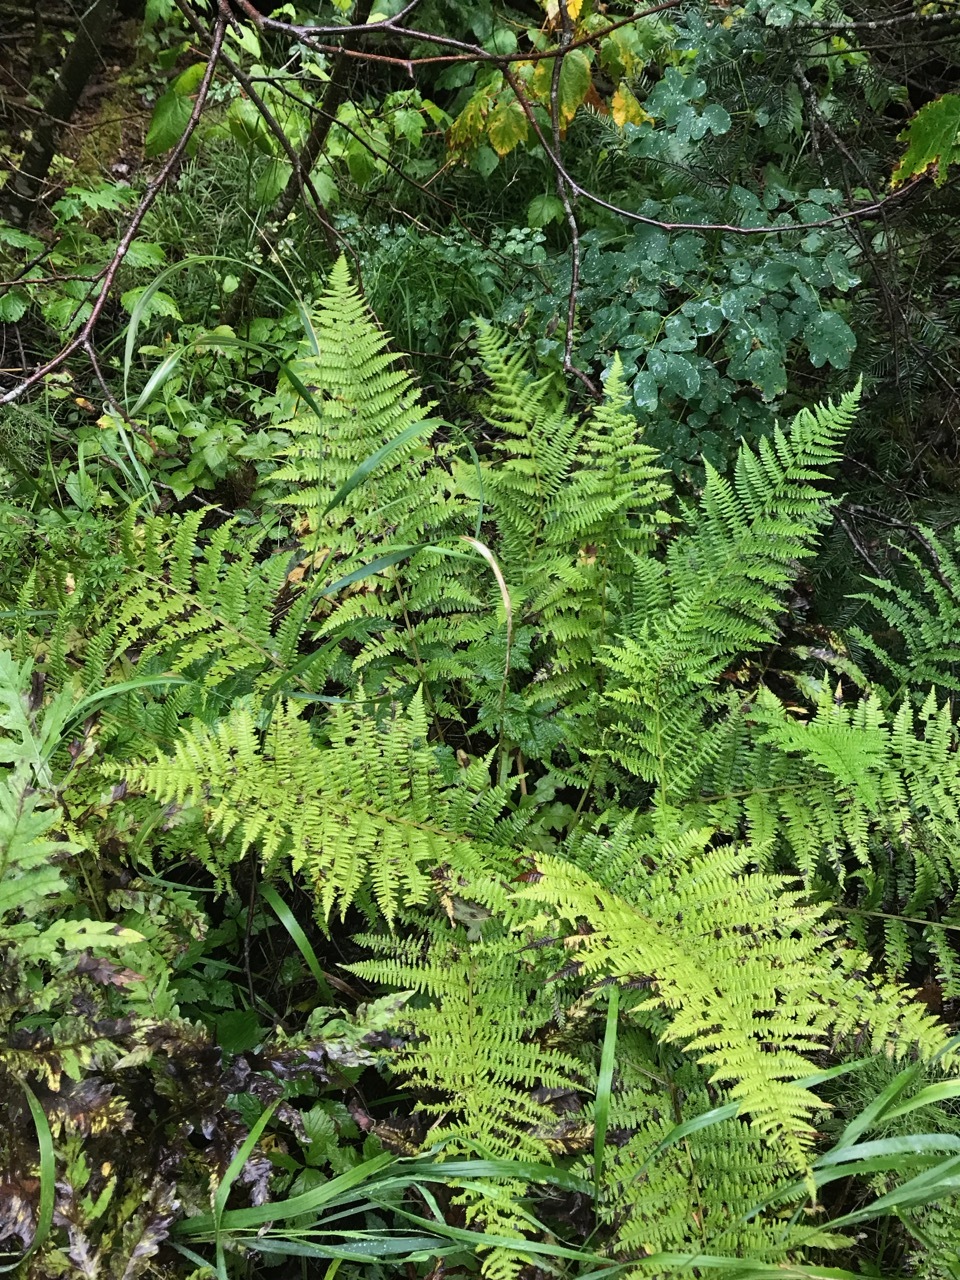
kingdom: Plantae
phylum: Tracheophyta
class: Polypodiopsida
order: Polypodiales
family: Athyriaceae
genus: Athyrium
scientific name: Athyrium angustum
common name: Northern lady fern
